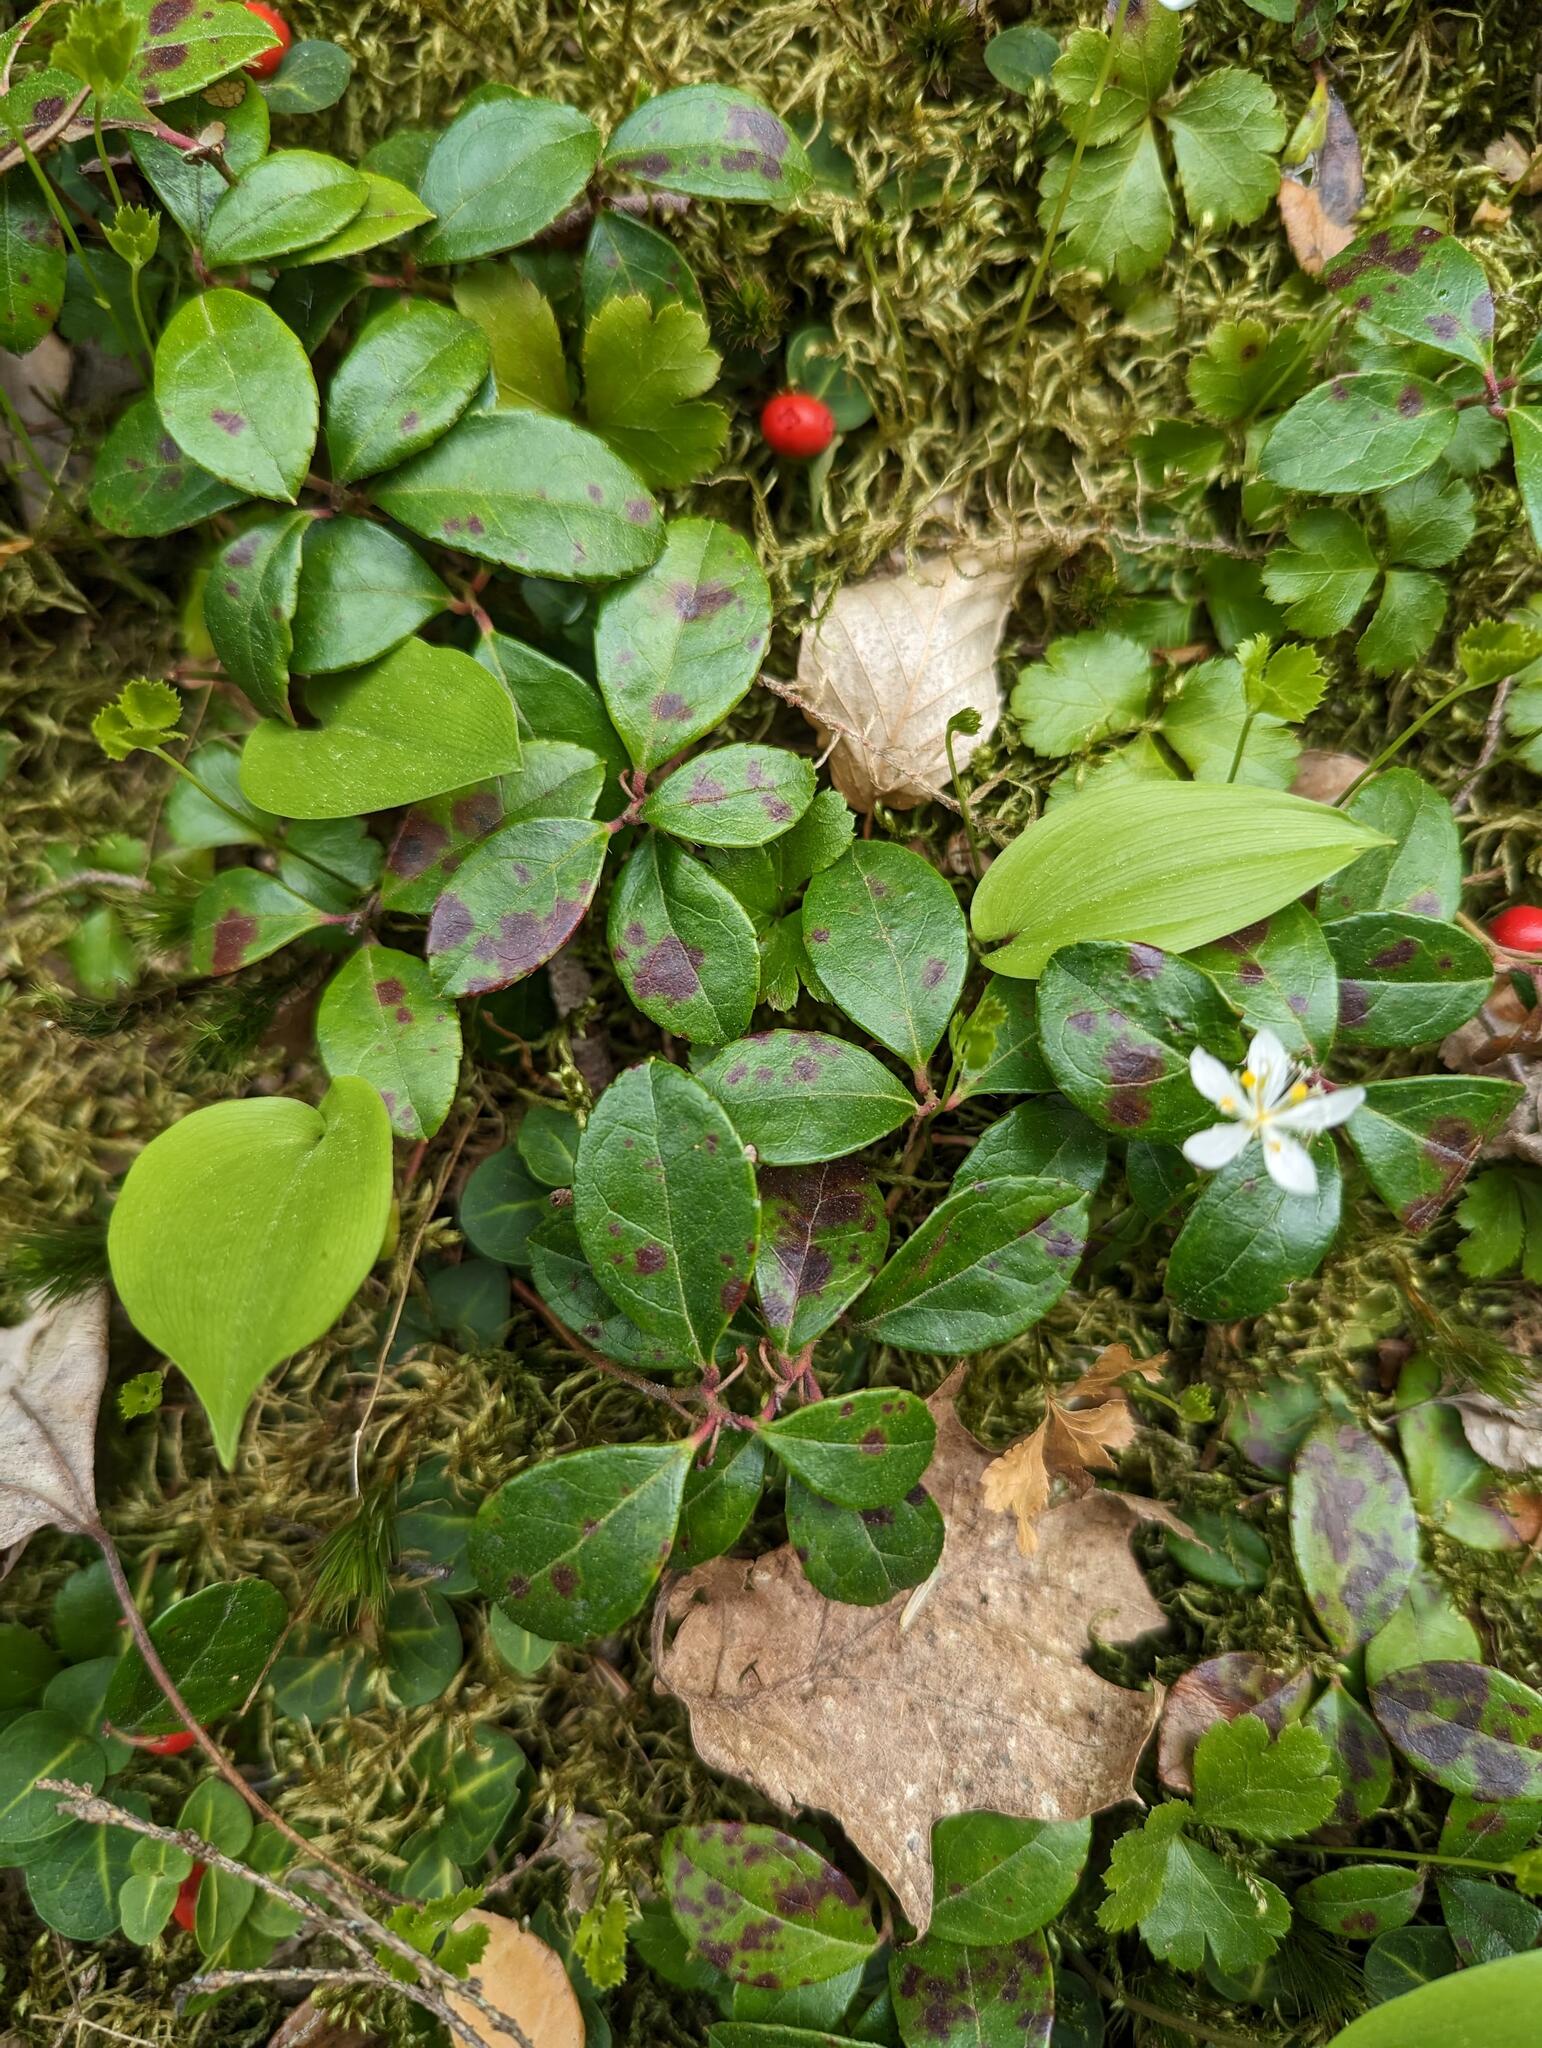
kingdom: Plantae
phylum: Tracheophyta
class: Magnoliopsida
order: Ericales
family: Ericaceae
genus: Gaultheria
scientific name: Gaultheria procumbens
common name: Checkerberry
